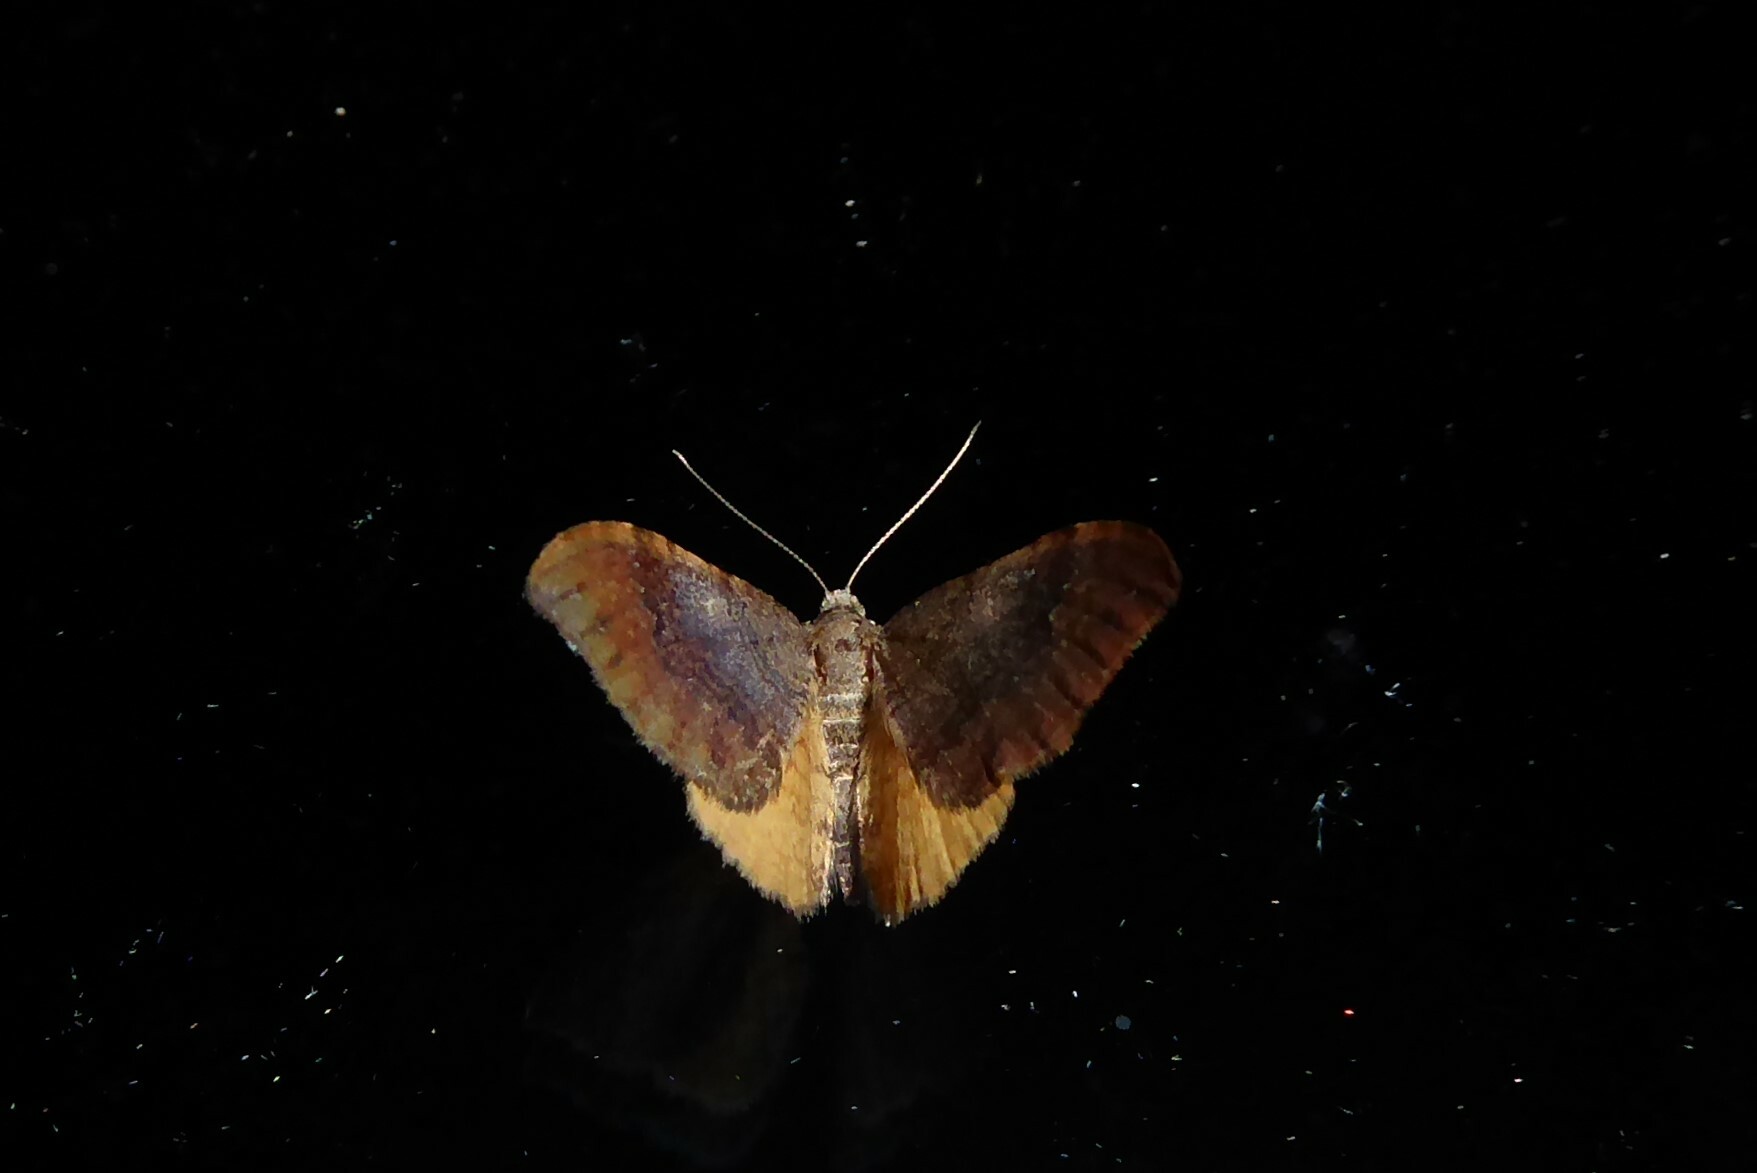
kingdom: Animalia
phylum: Arthropoda
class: Insecta
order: Lepidoptera
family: Geometridae
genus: Homodotis
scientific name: Homodotis megaspilata
